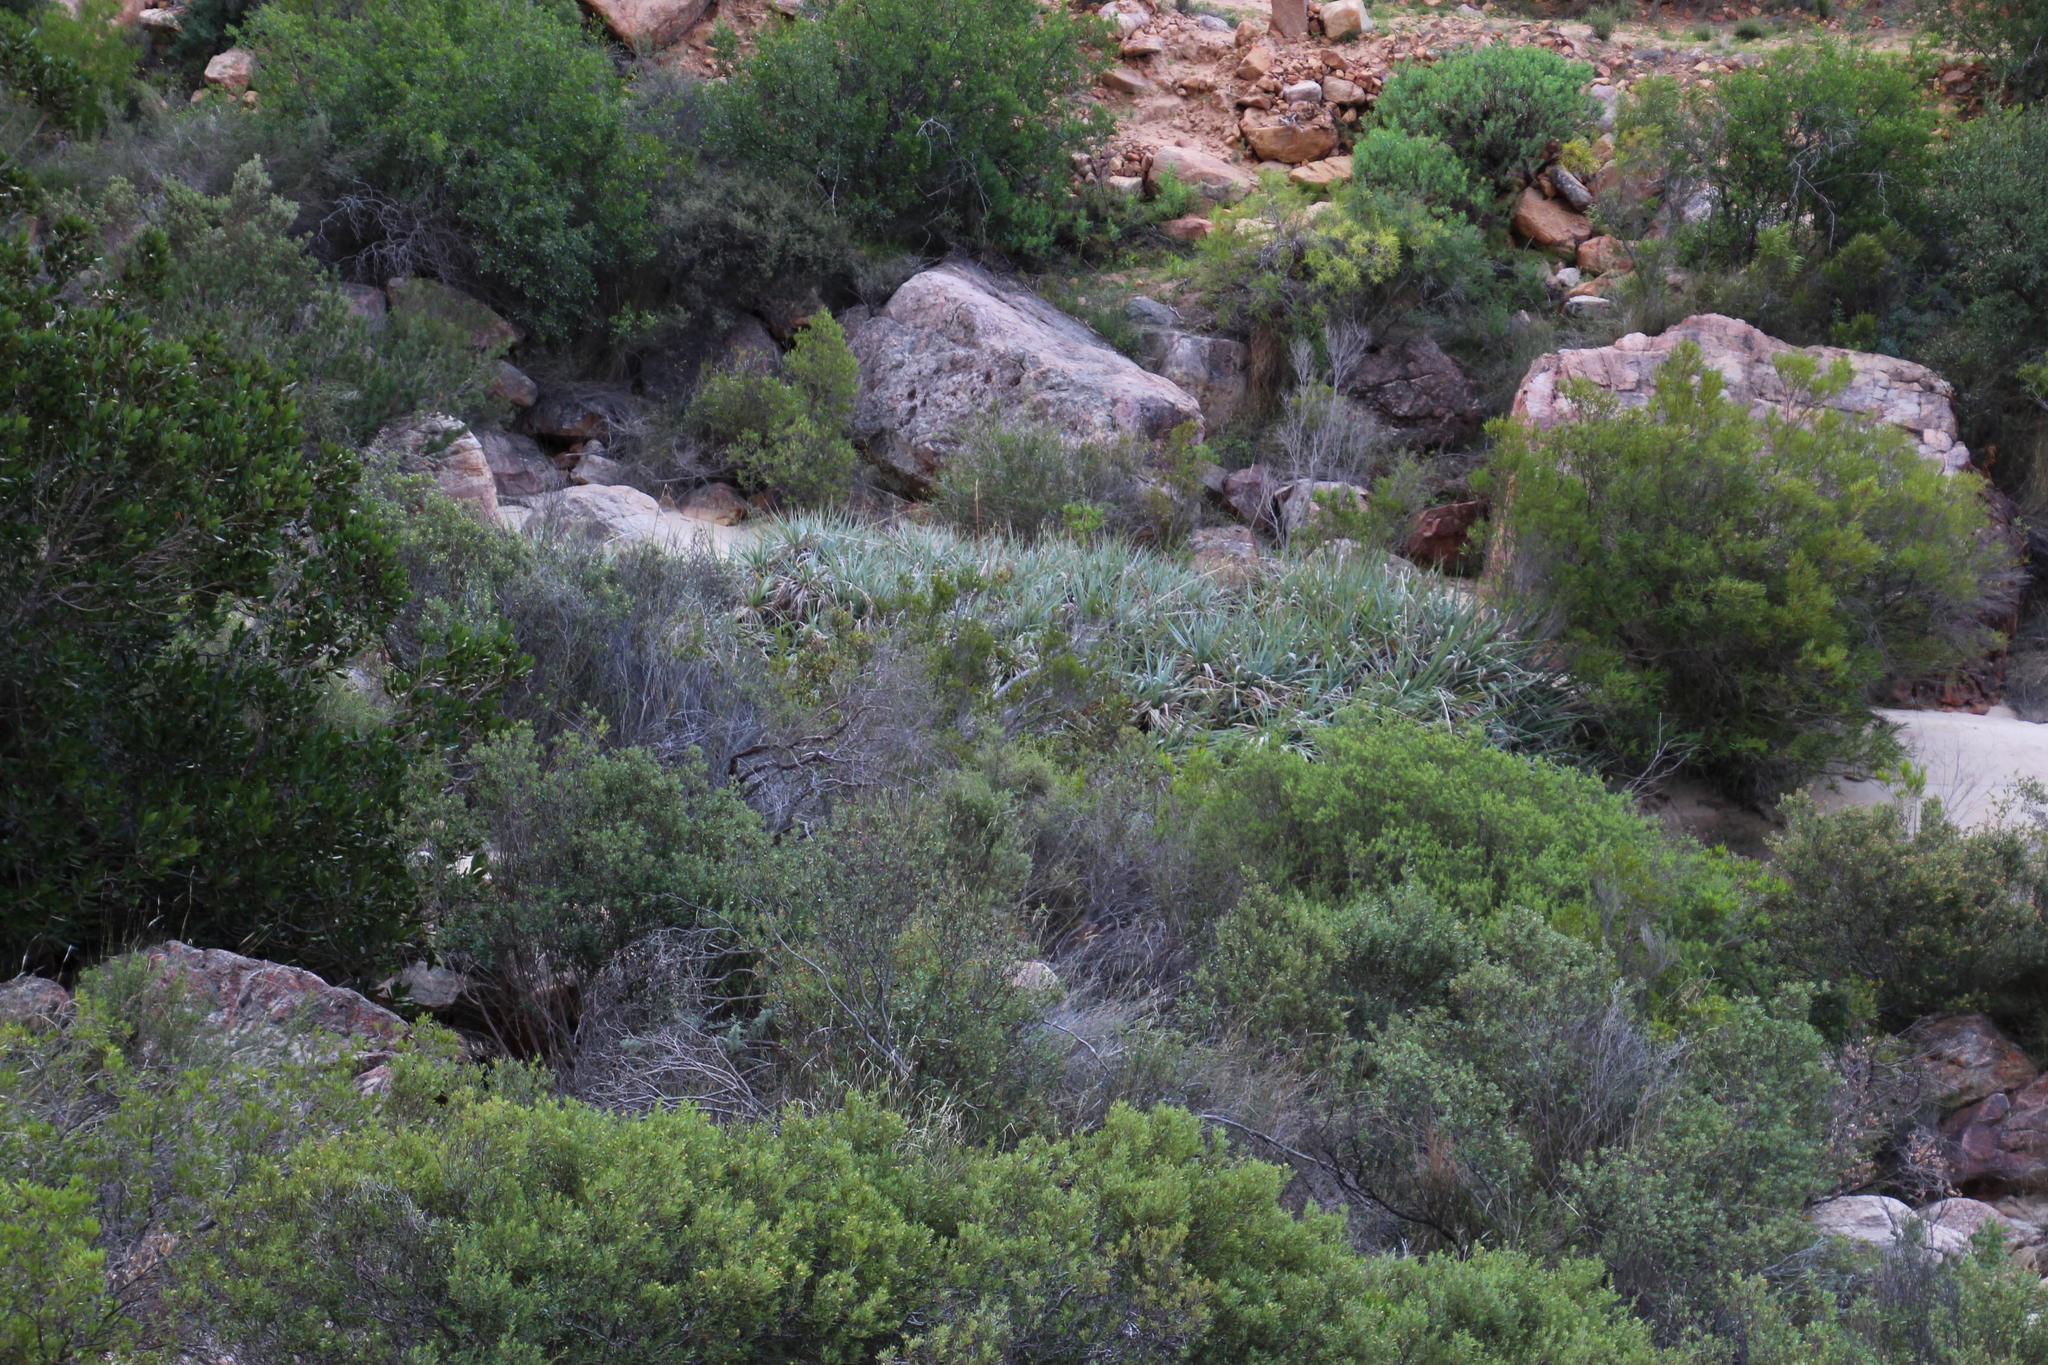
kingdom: Plantae
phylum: Tracheophyta
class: Liliopsida
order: Poales
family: Thurniaceae
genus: Prionium
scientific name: Prionium serratum
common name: Palmiet
